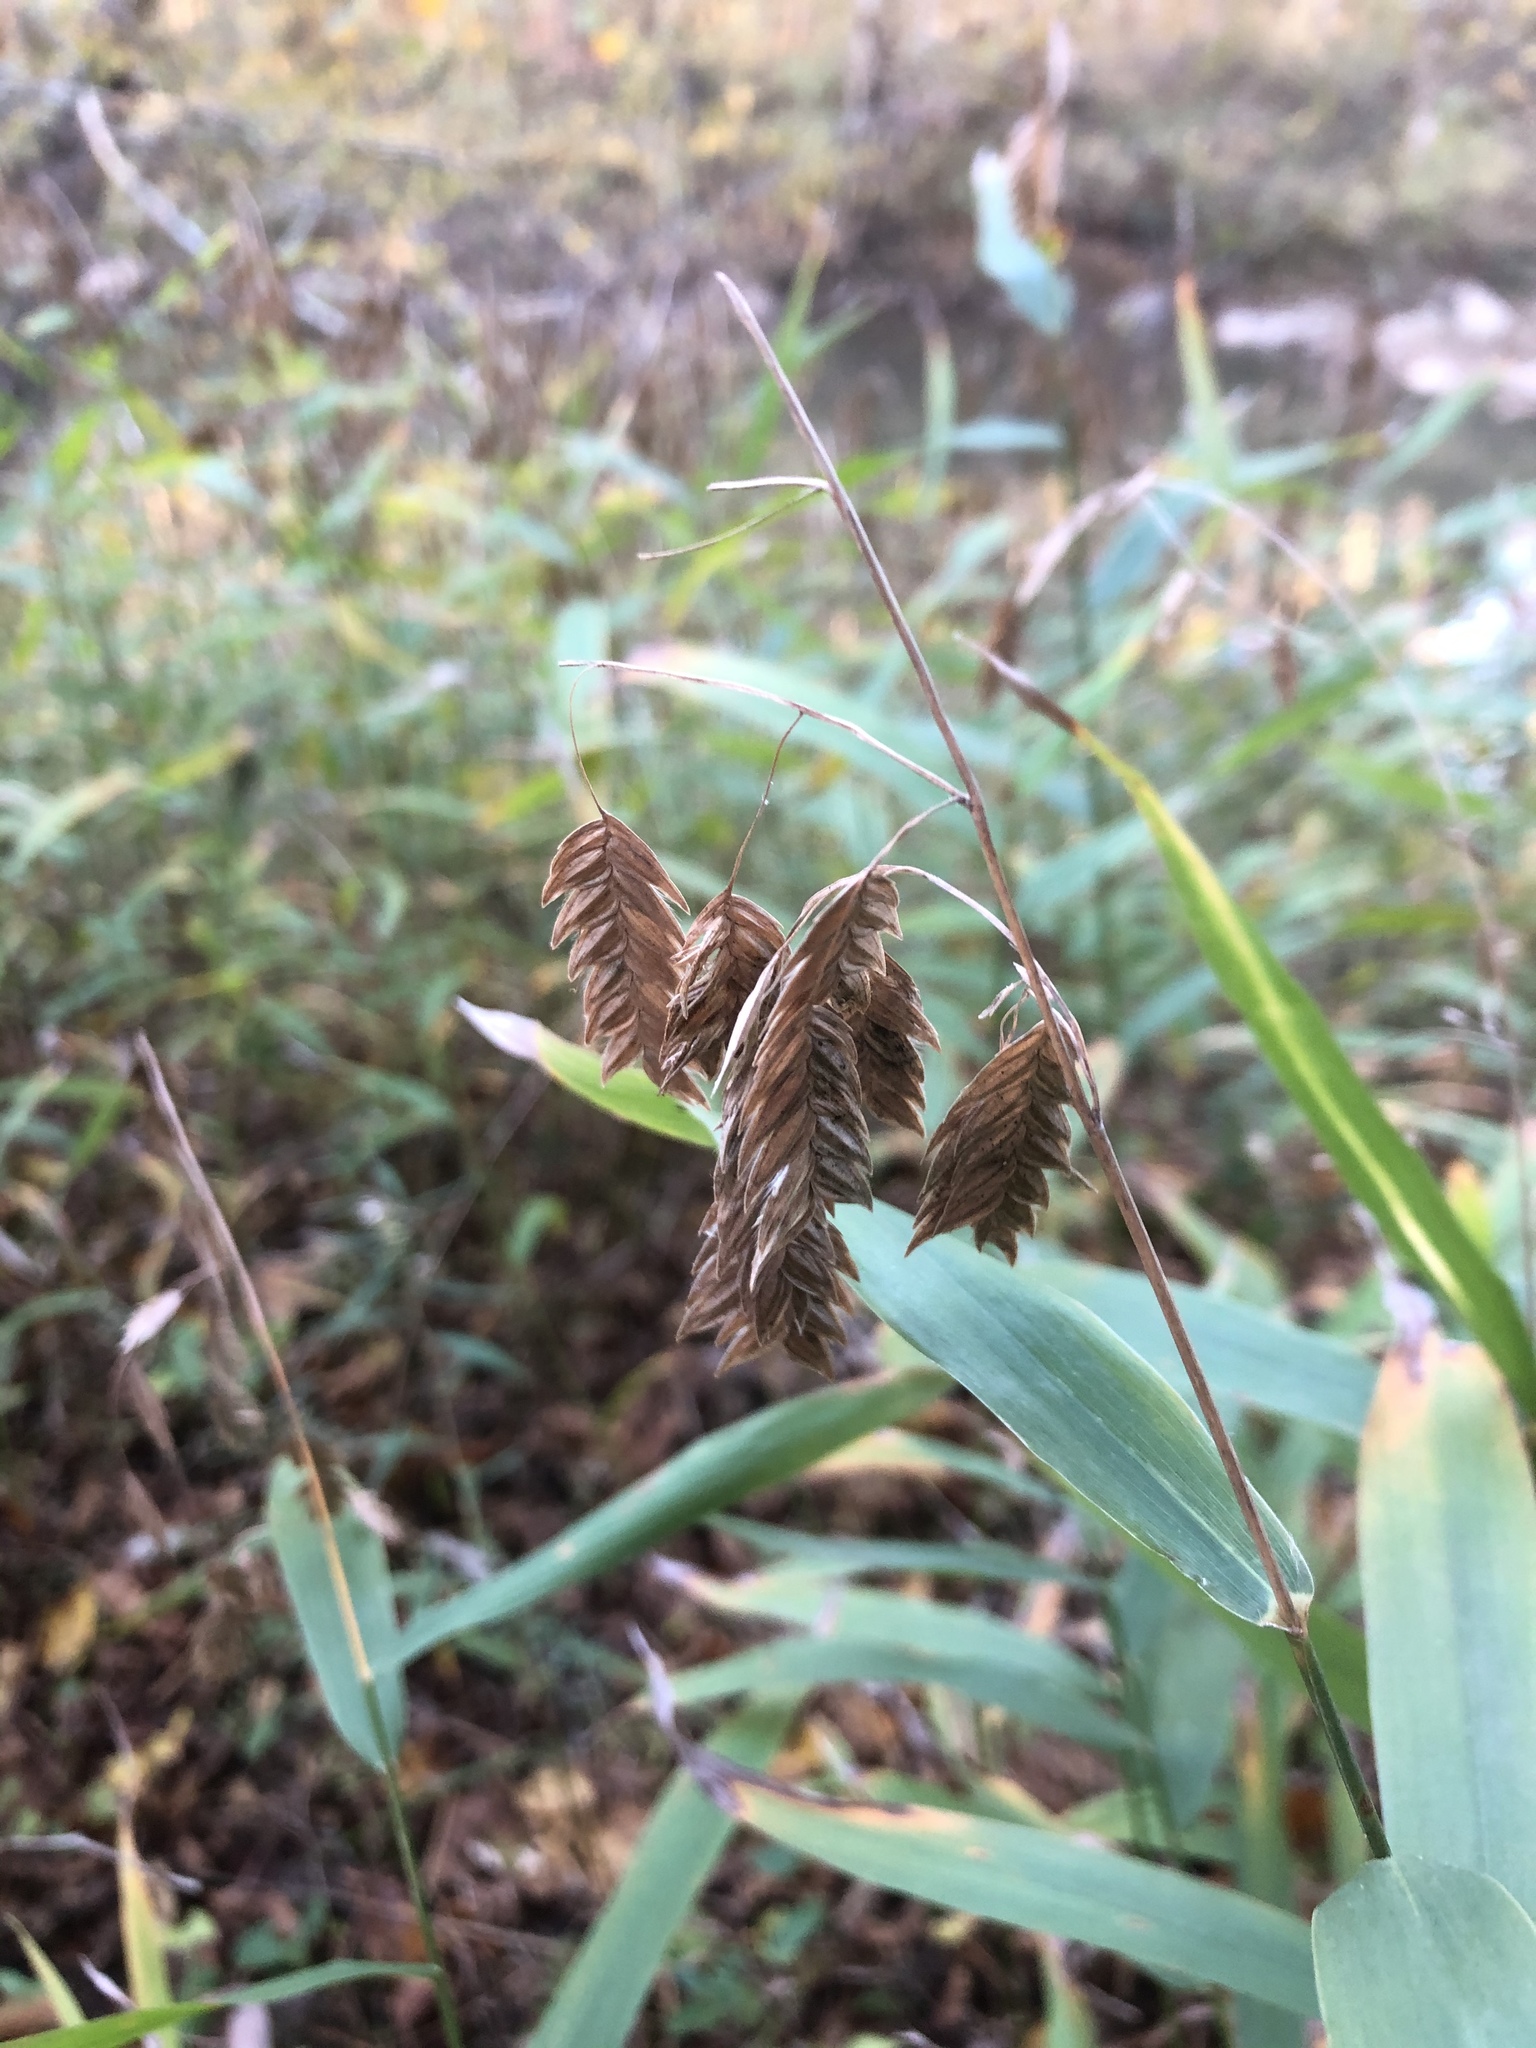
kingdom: Plantae
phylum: Tracheophyta
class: Liliopsida
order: Poales
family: Poaceae
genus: Chasmanthium
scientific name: Chasmanthium latifolium
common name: Broad-leaved chasmanthium
